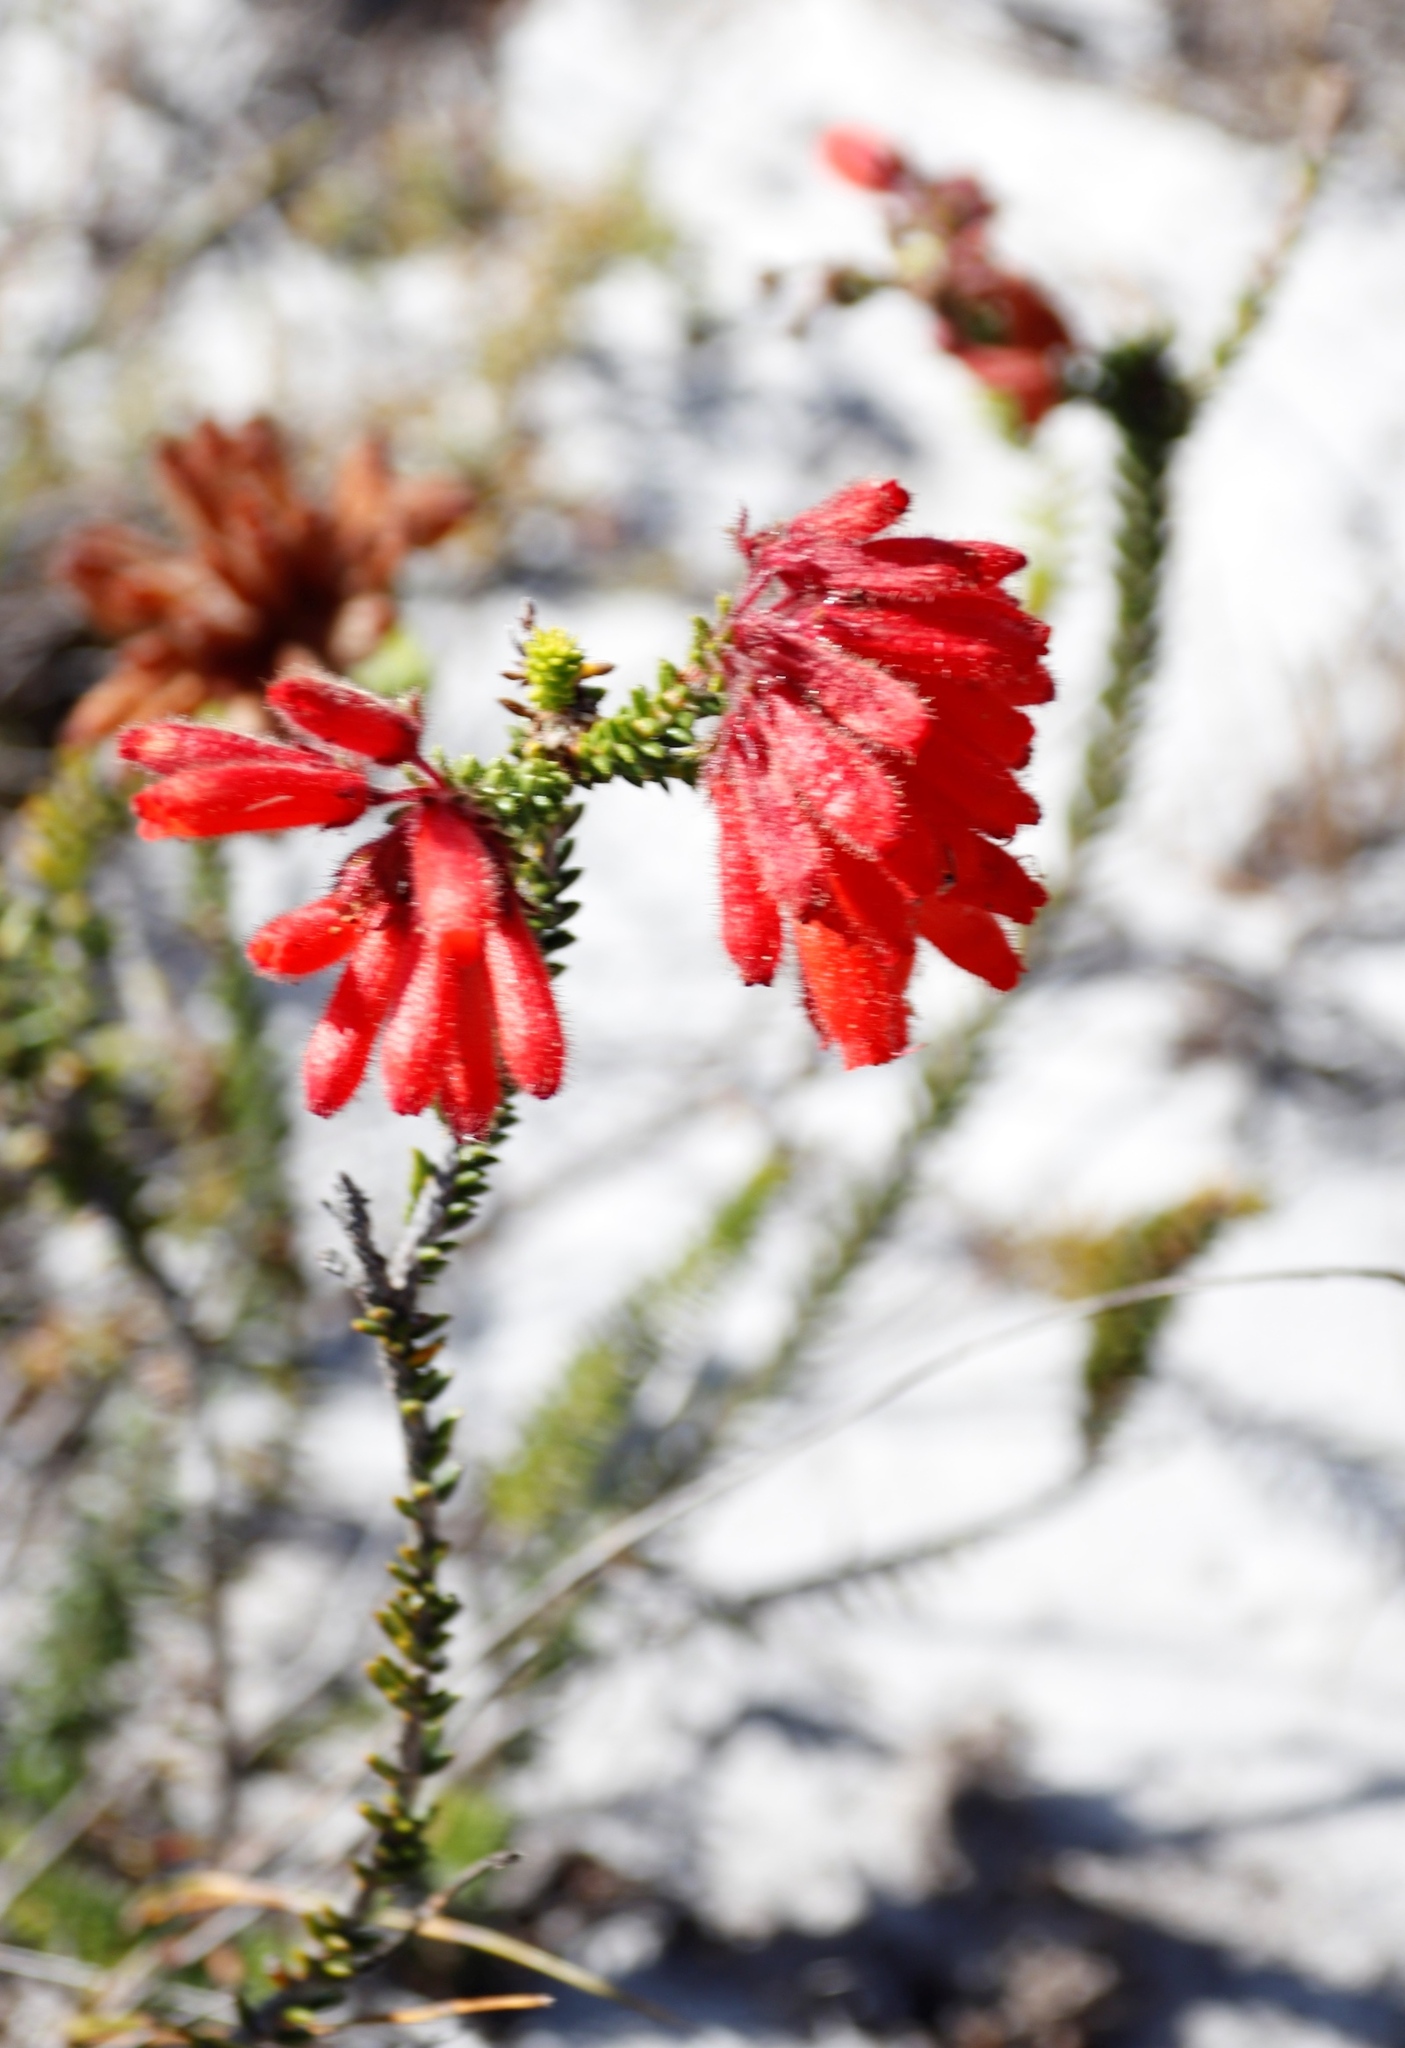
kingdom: Plantae
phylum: Tracheophyta
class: Magnoliopsida
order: Ericales
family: Ericaceae
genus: Erica
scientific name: Erica cerinthoides
